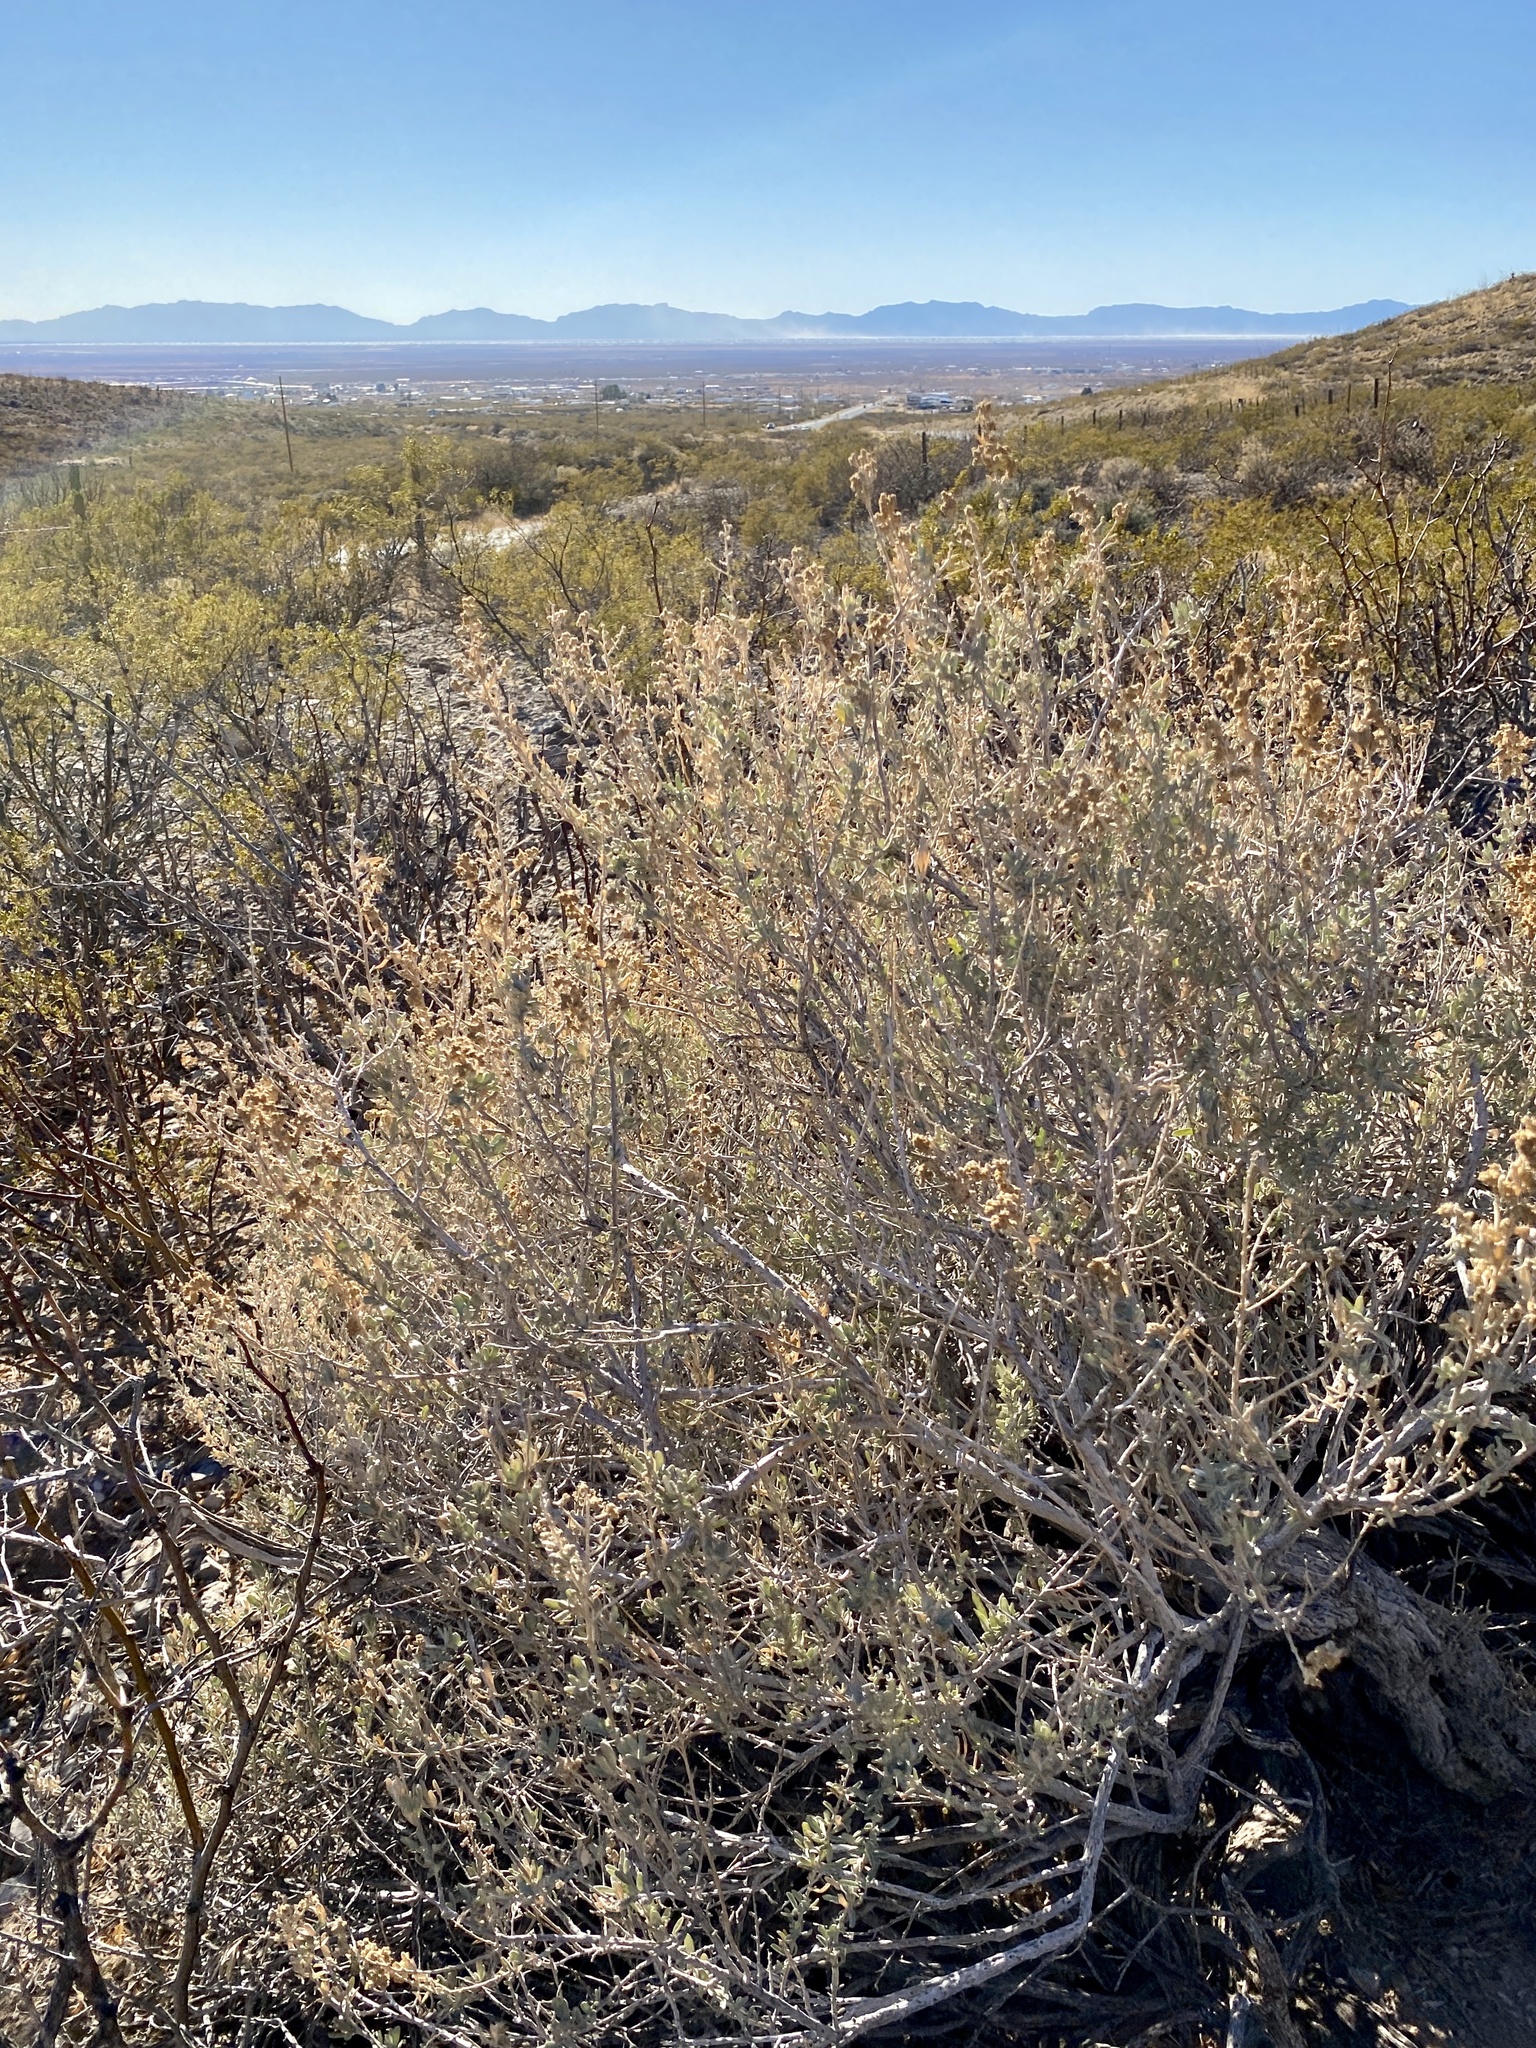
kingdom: Plantae
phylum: Tracheophyta
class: Magnoliopsida
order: Caryophyllales
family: Amaranthaceae
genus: Atriplex
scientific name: Atriplex canescens
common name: Four-wing saltbush
